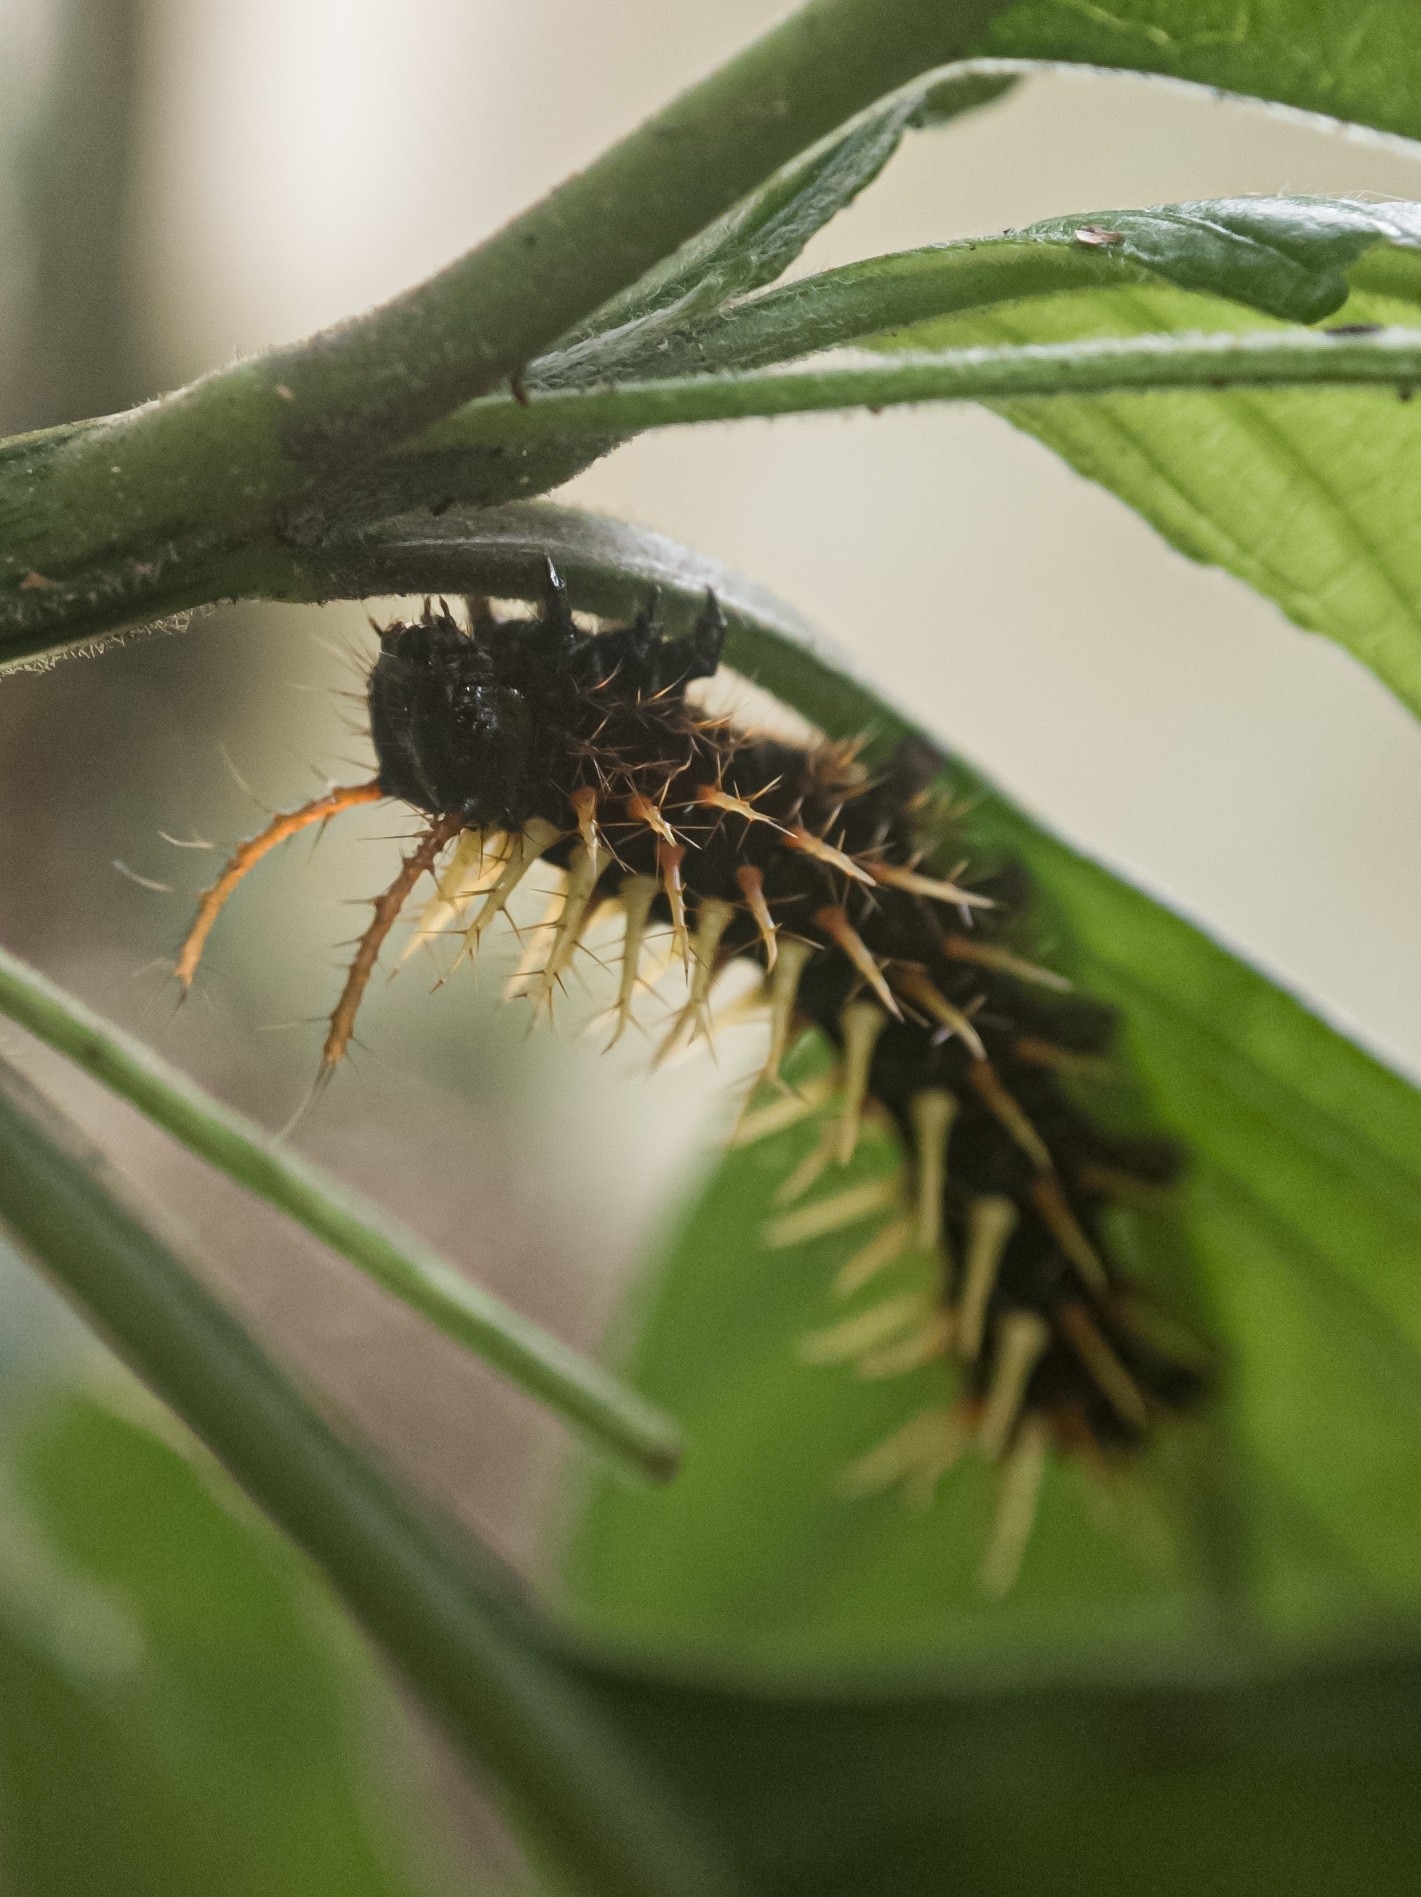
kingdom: Animalia
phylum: Arthropoda
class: Insecta
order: Lepidoptera
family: Nymphalidae
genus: Siproeta
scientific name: Siproeta epaphus
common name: Rusty-tipped page
